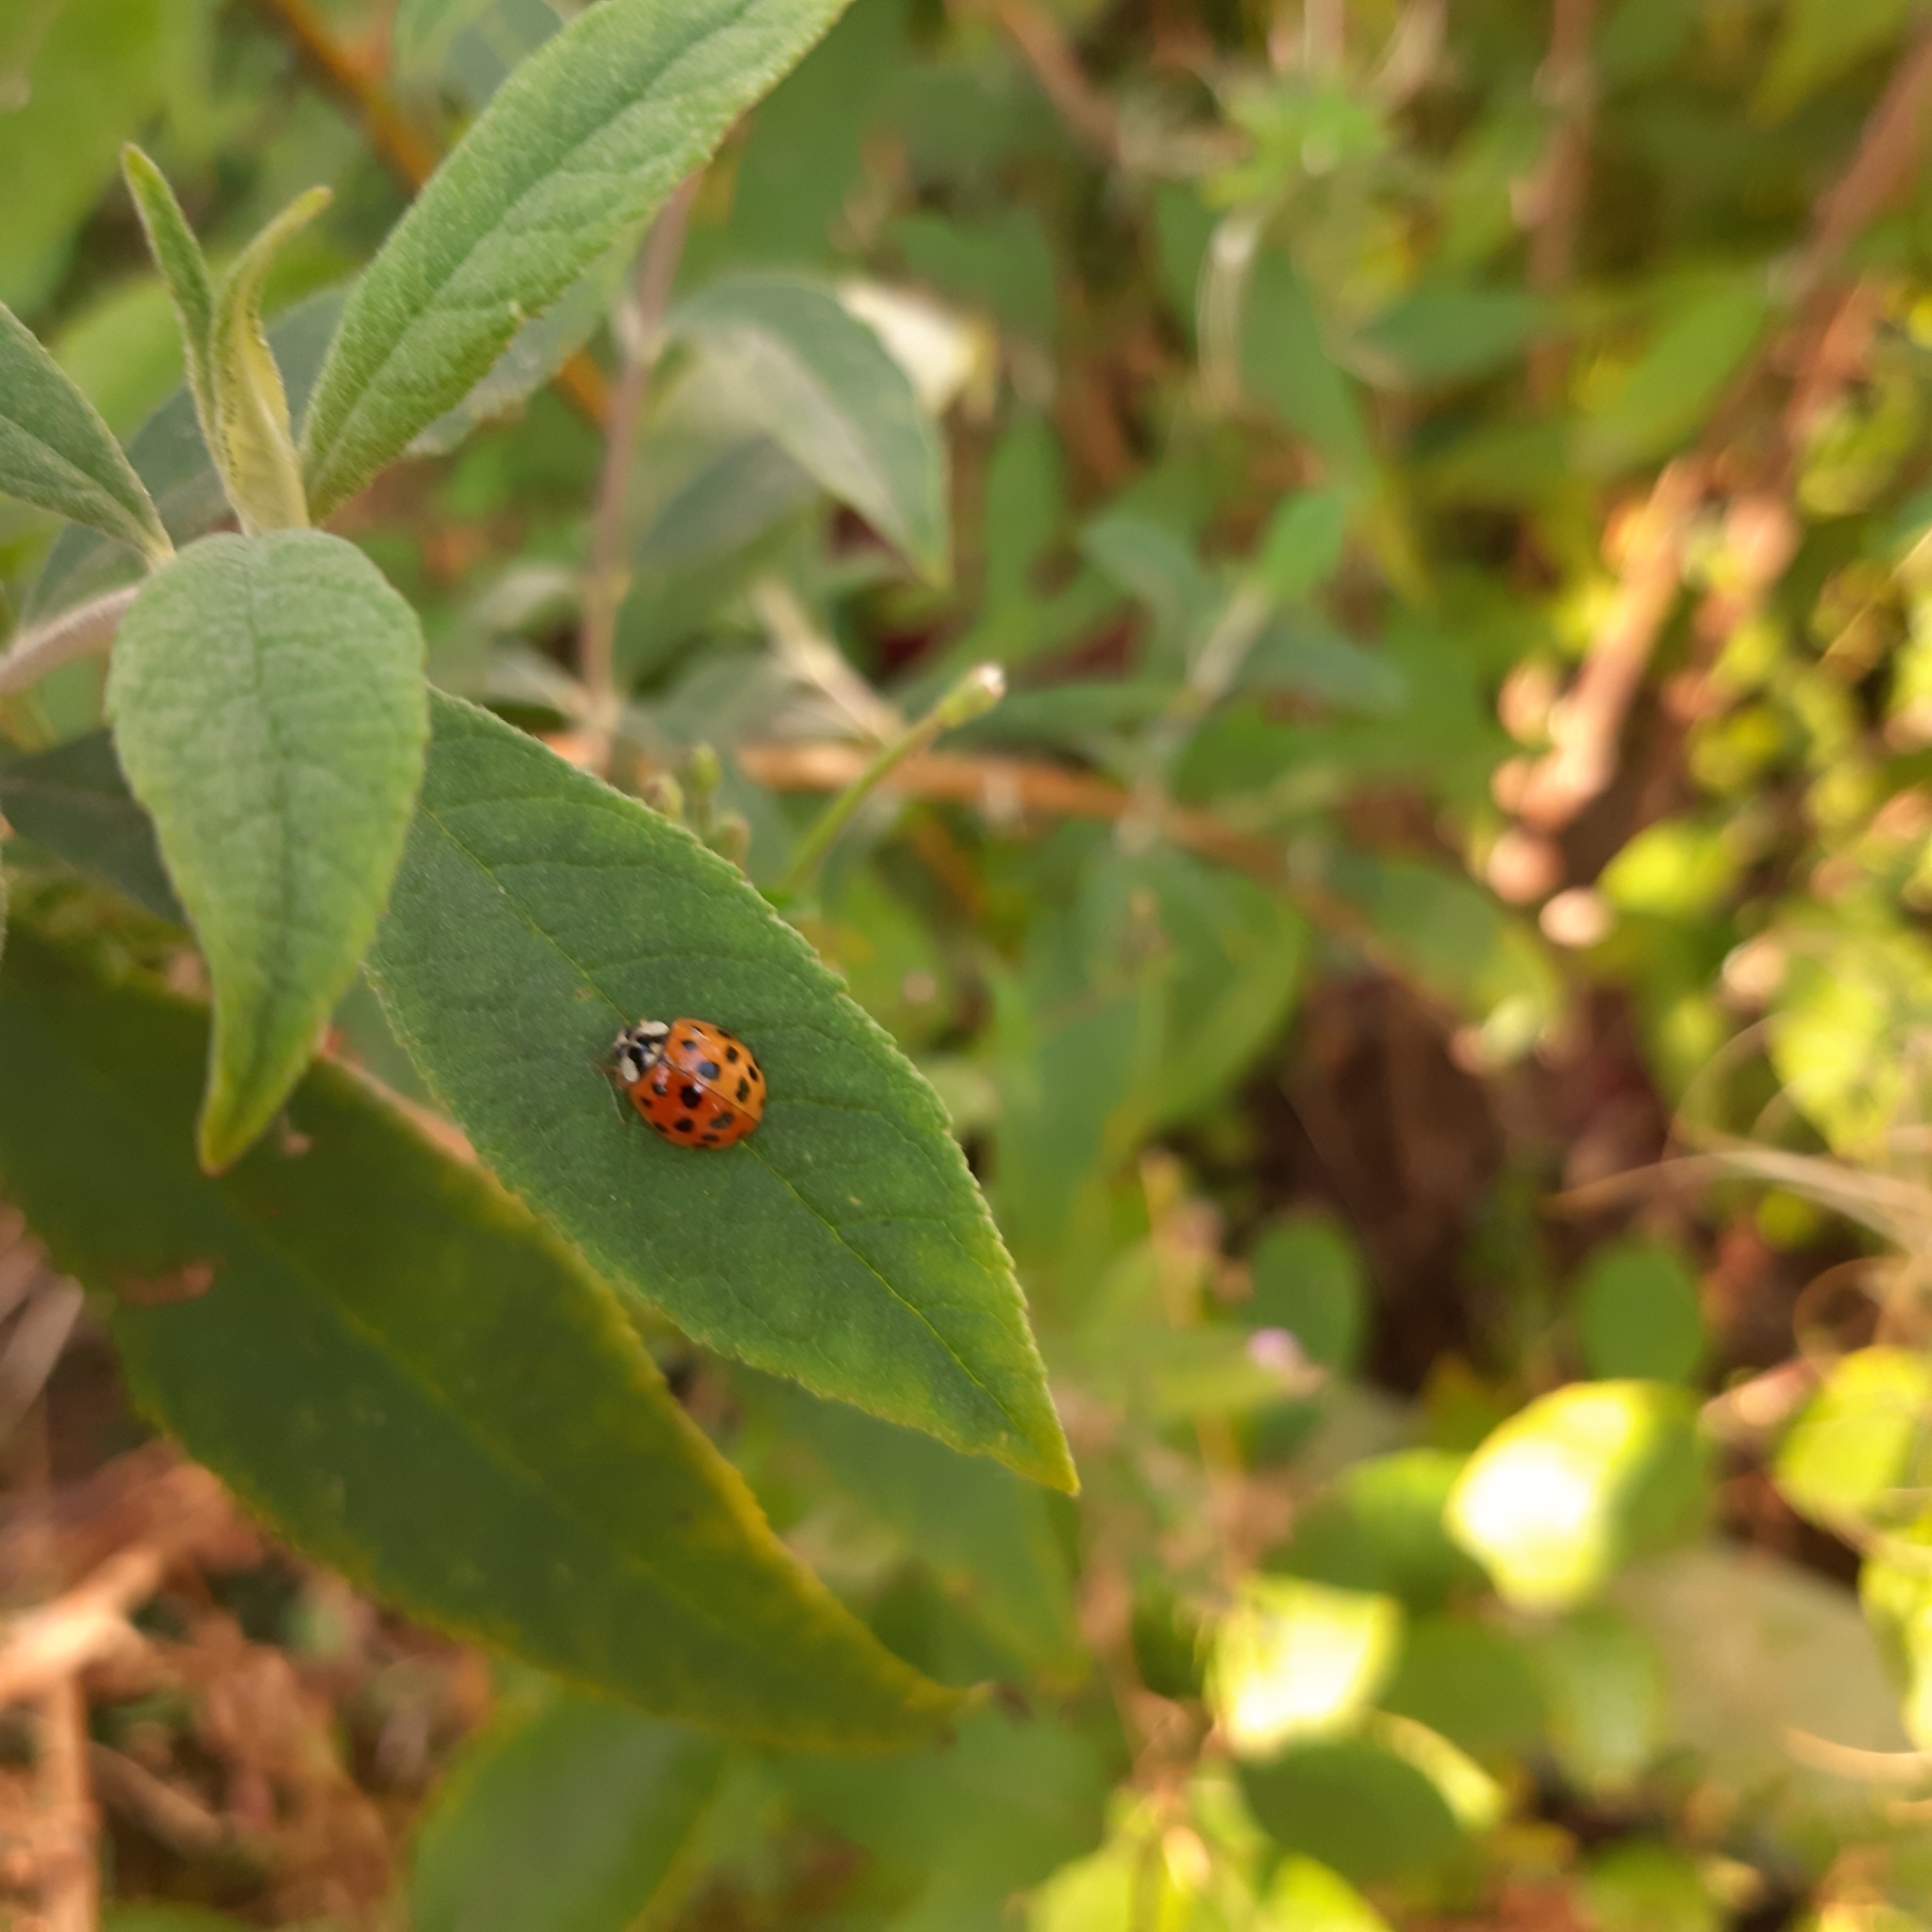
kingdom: Animalia
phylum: Arthropoda
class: Insecta
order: Coleoptera
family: Coccinellidae
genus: Harmonia
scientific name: Harmonia axyridis
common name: Harlequin ladybird
